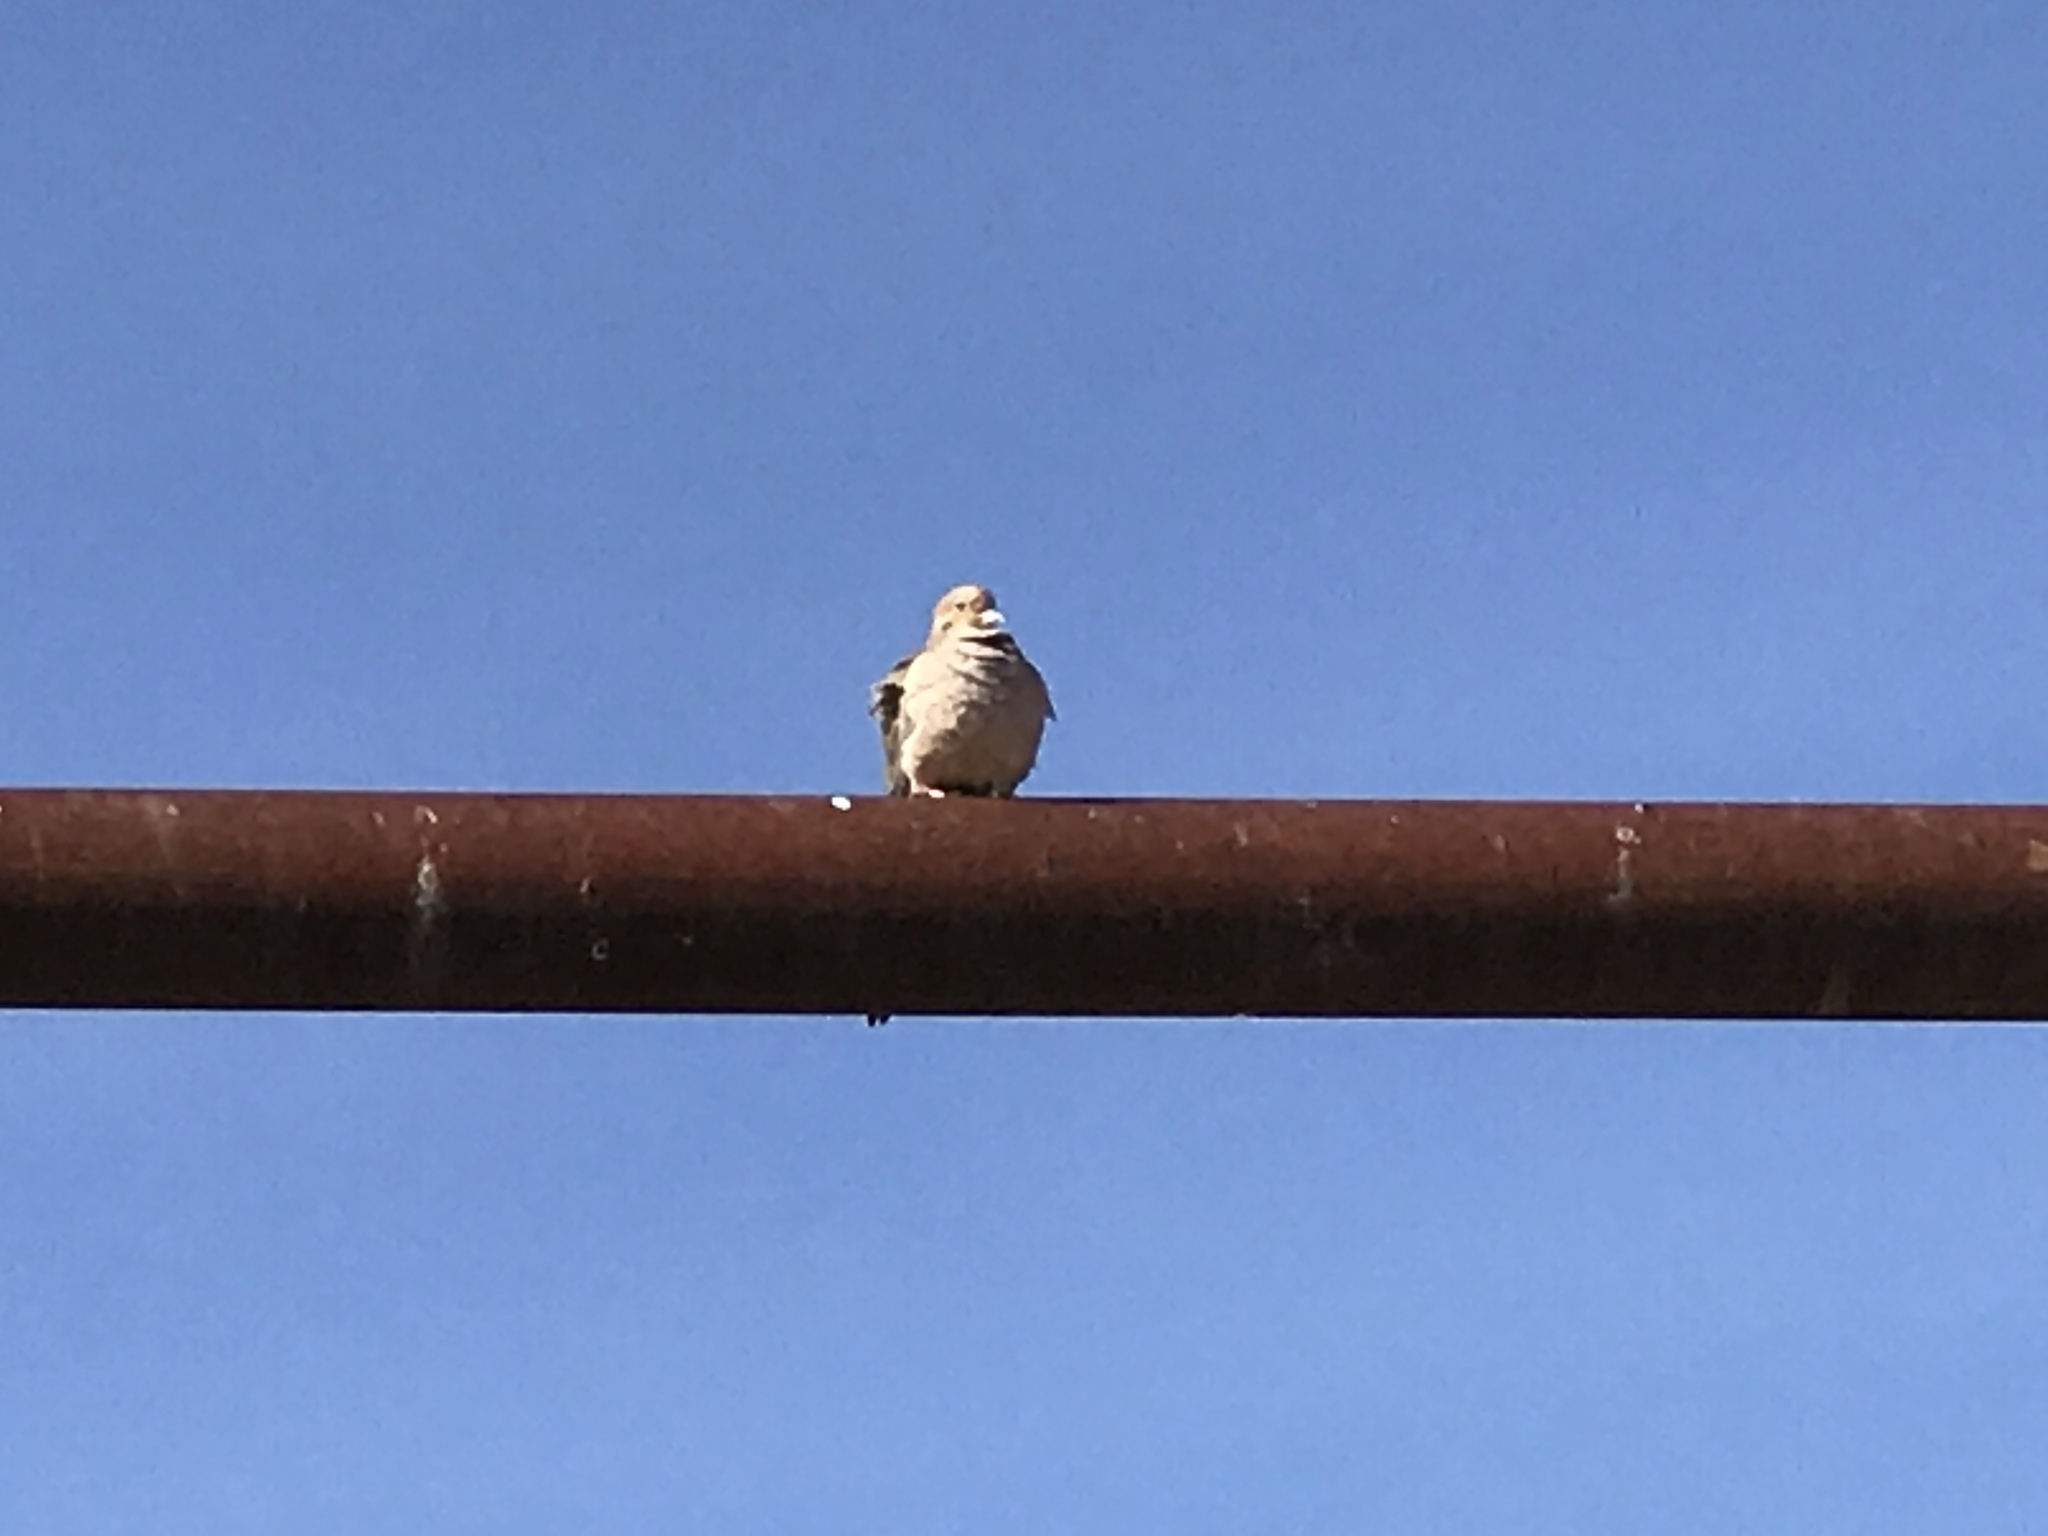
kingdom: Animalia
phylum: Chordata
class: Aves
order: Columbiformes
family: Columbidae
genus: Zenaida
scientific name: Zenaida macroura
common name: Mourning dove
